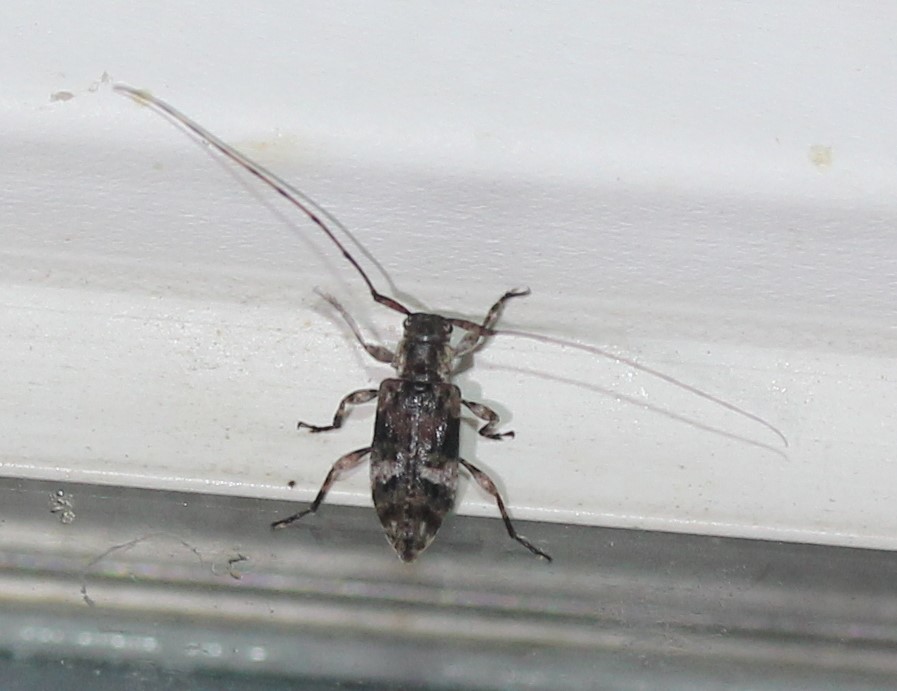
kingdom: Animalia
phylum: Arthropoda
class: Insecta
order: Coleoptera
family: Cerambycidae
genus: Sternidius
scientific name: Sternidius alpha
